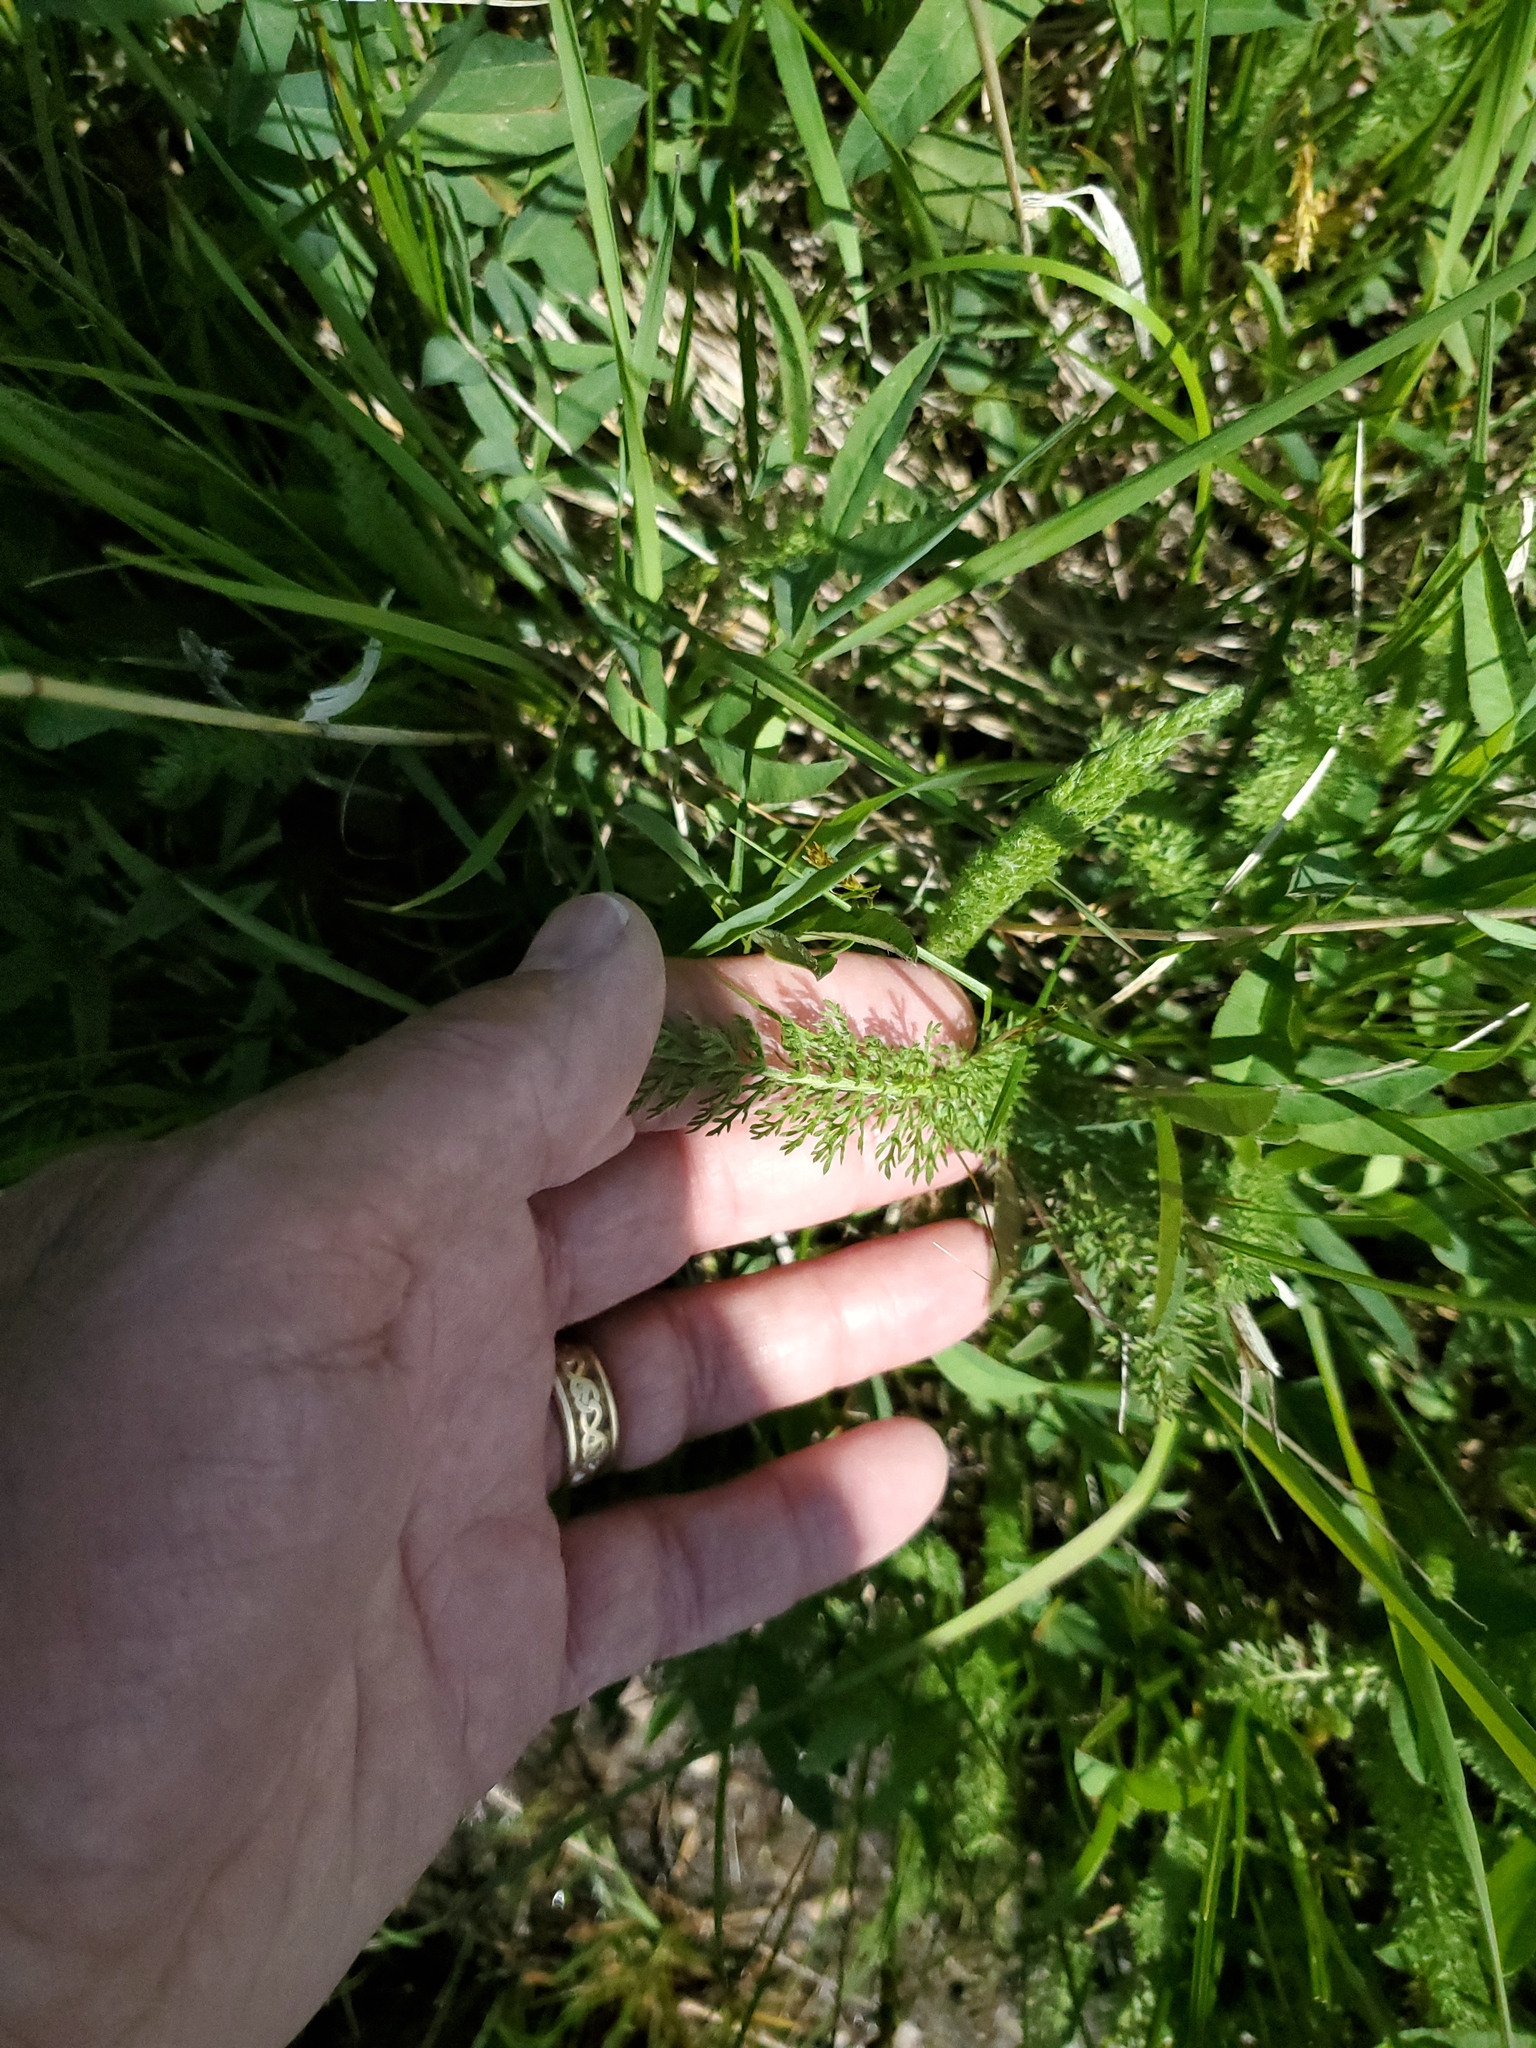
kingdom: Plantae
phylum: Tracheophyta
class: Magnoliopsida
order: Asterales
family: Asteraceae
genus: Achillea
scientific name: Achillea millefolium
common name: Yarrow
